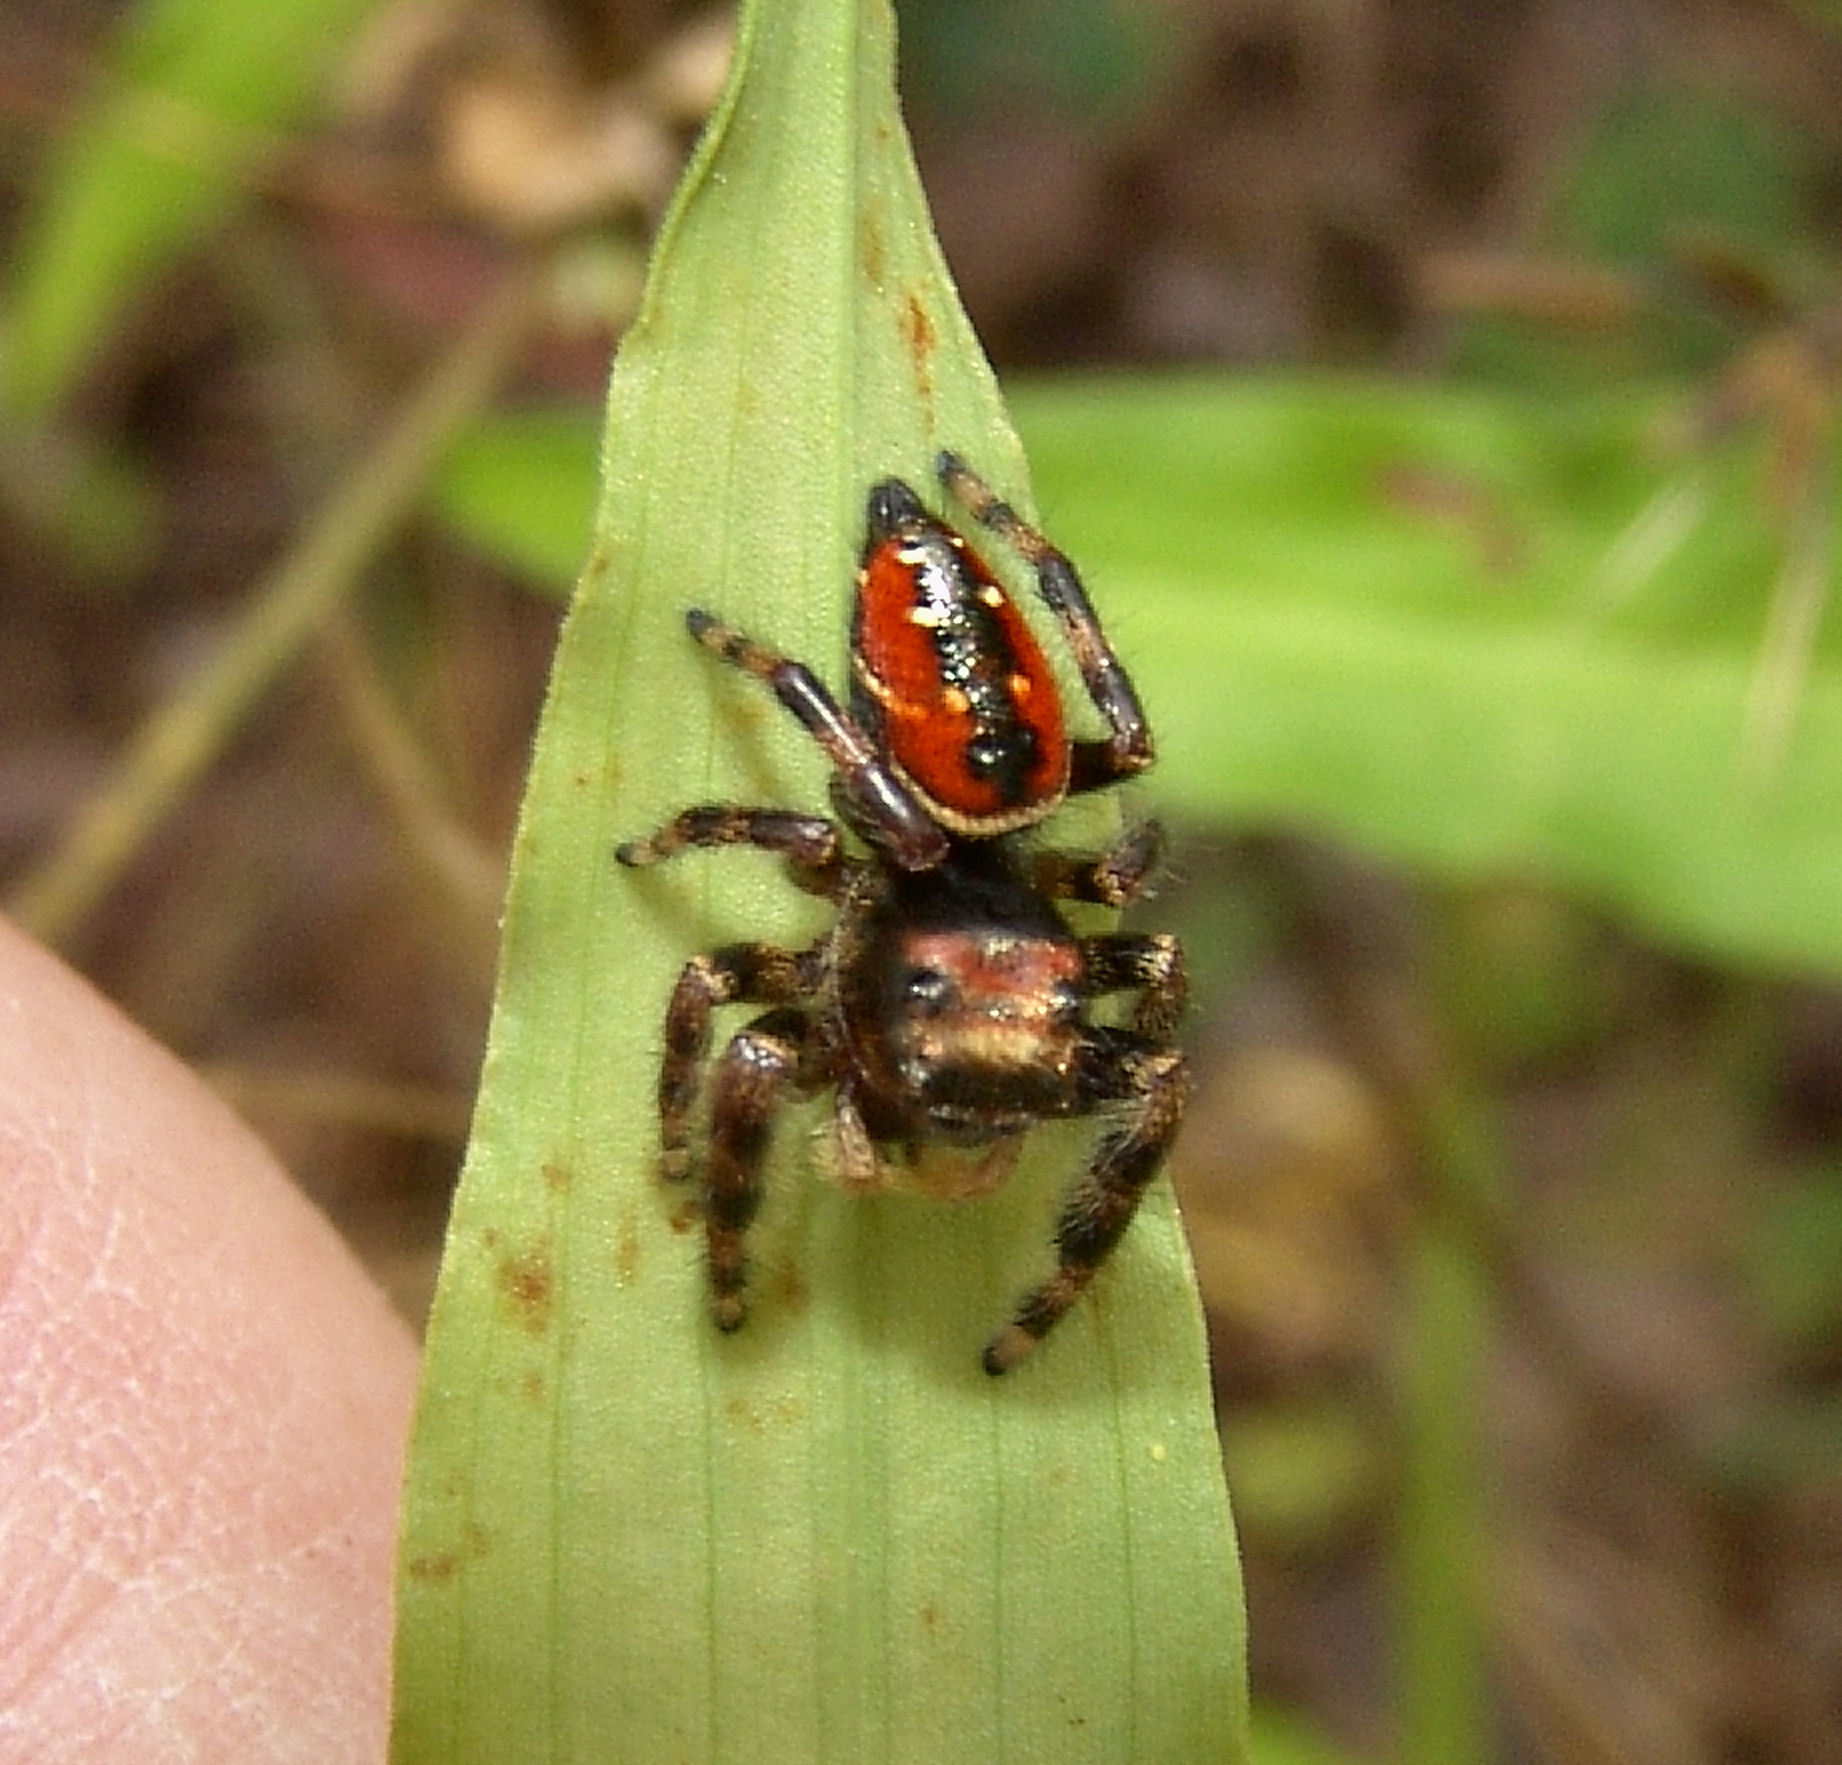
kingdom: Animalia
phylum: Arthropoda
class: Arachnida
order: Araneae
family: Salticidae
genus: Phidippus
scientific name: Phidippus clarus
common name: Brilliant jumping spider
